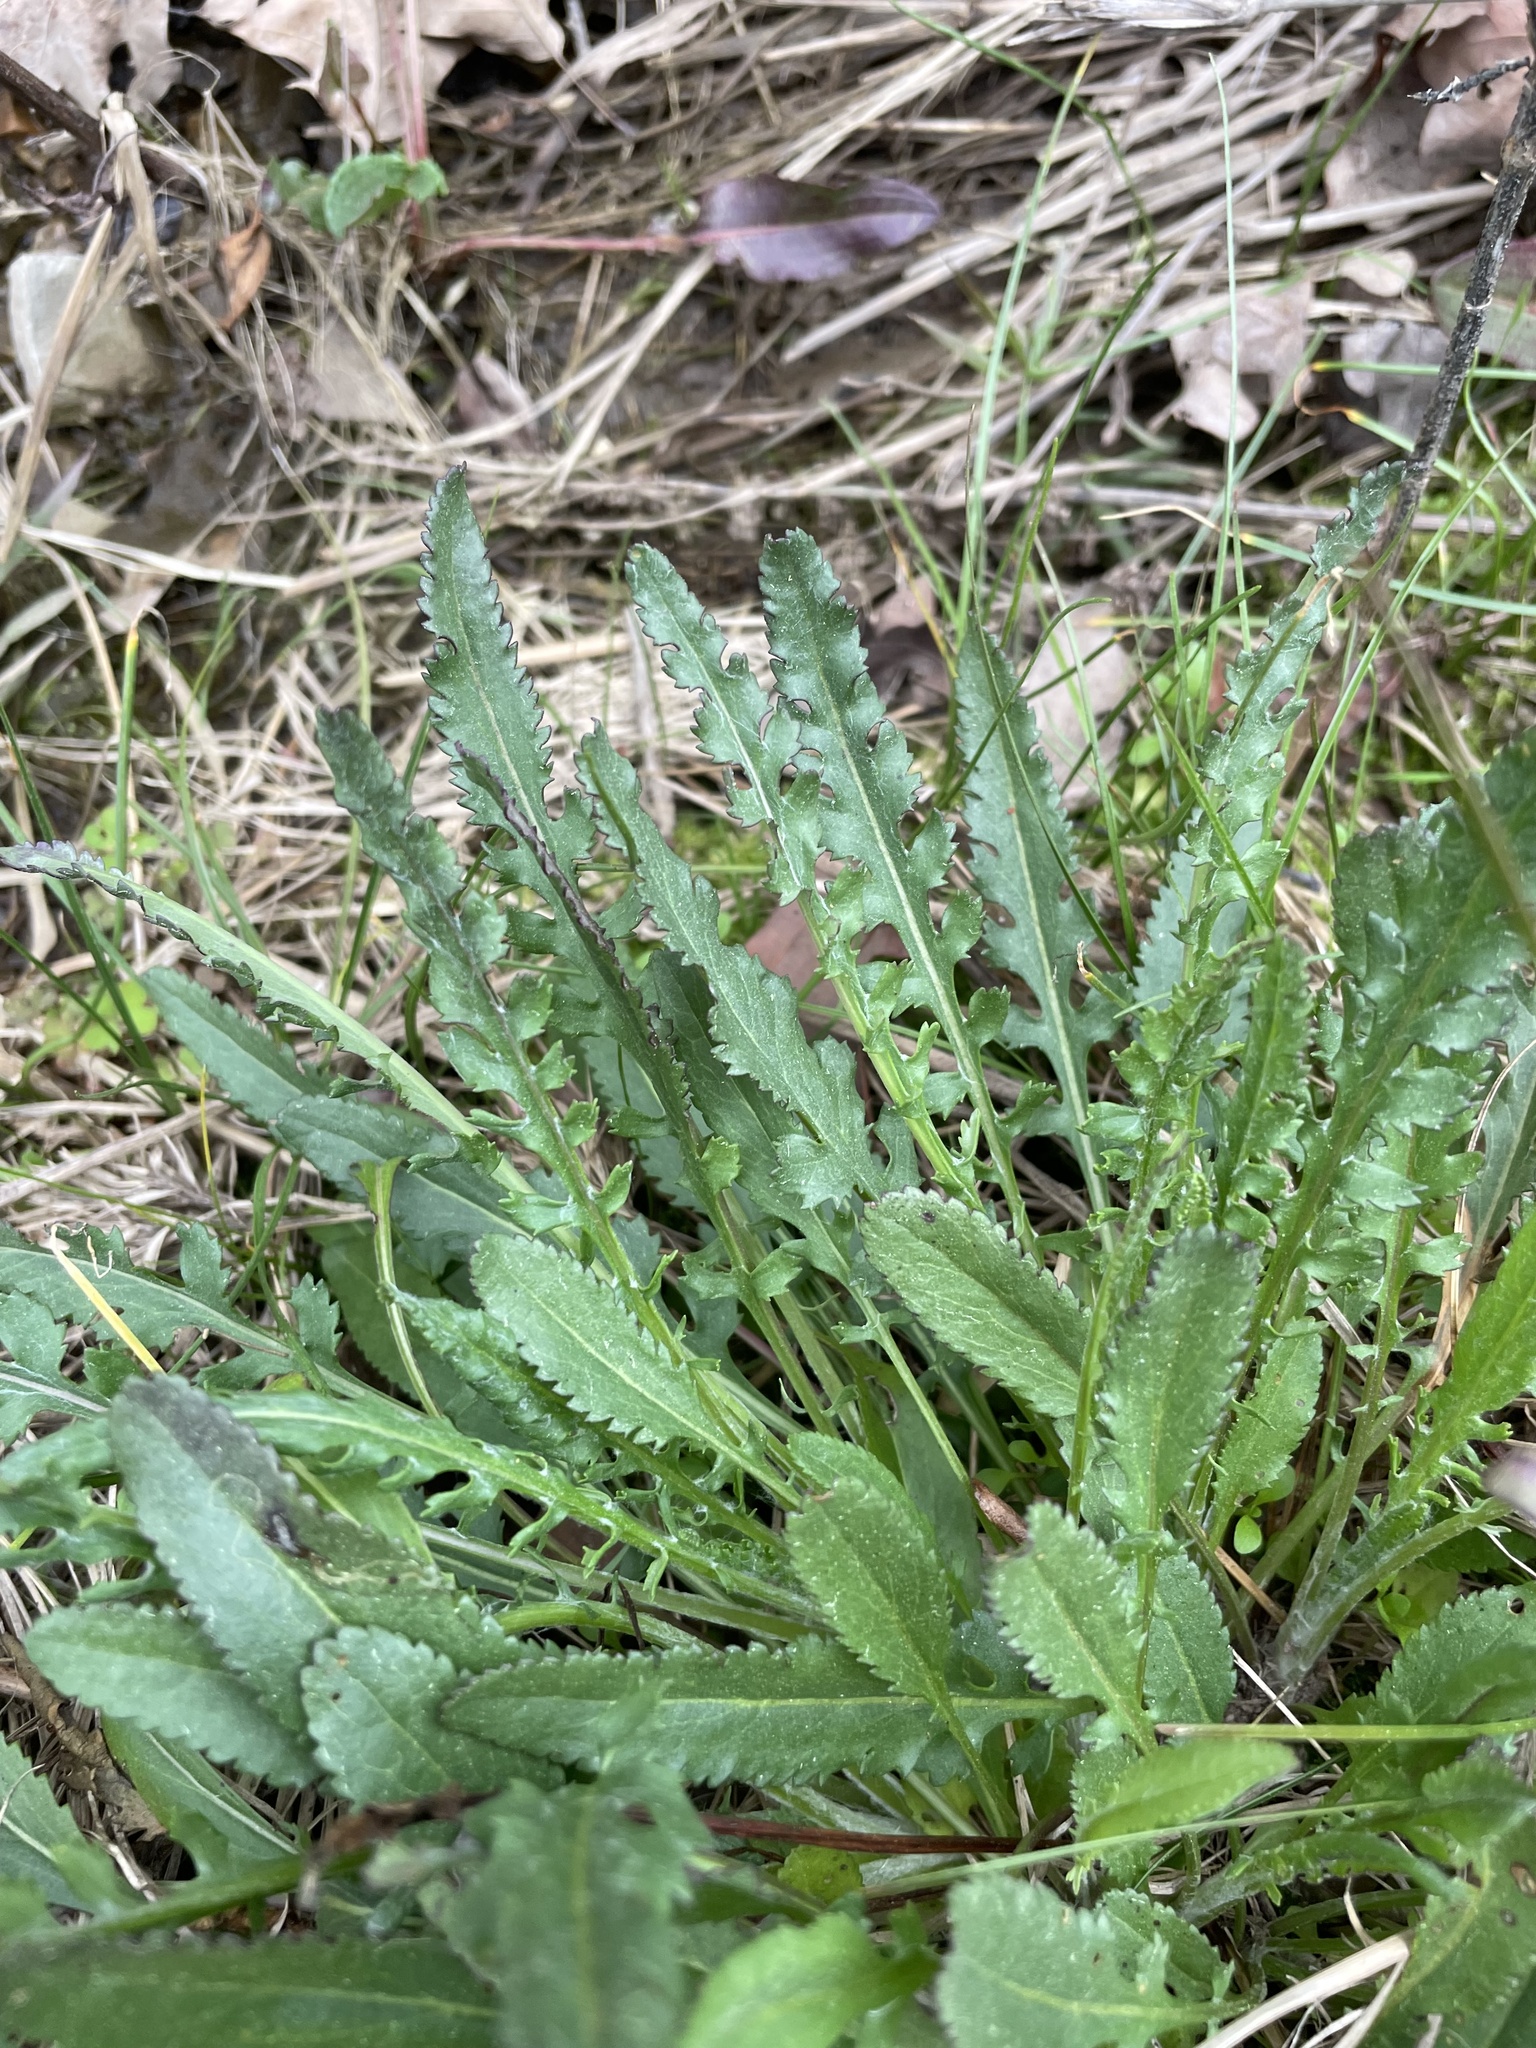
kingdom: Plantae
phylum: Tracheophyta
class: Magnoliopsida
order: Asterales
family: Asteraceae
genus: Packera
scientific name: Packera anonyma
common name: Small ragwort
